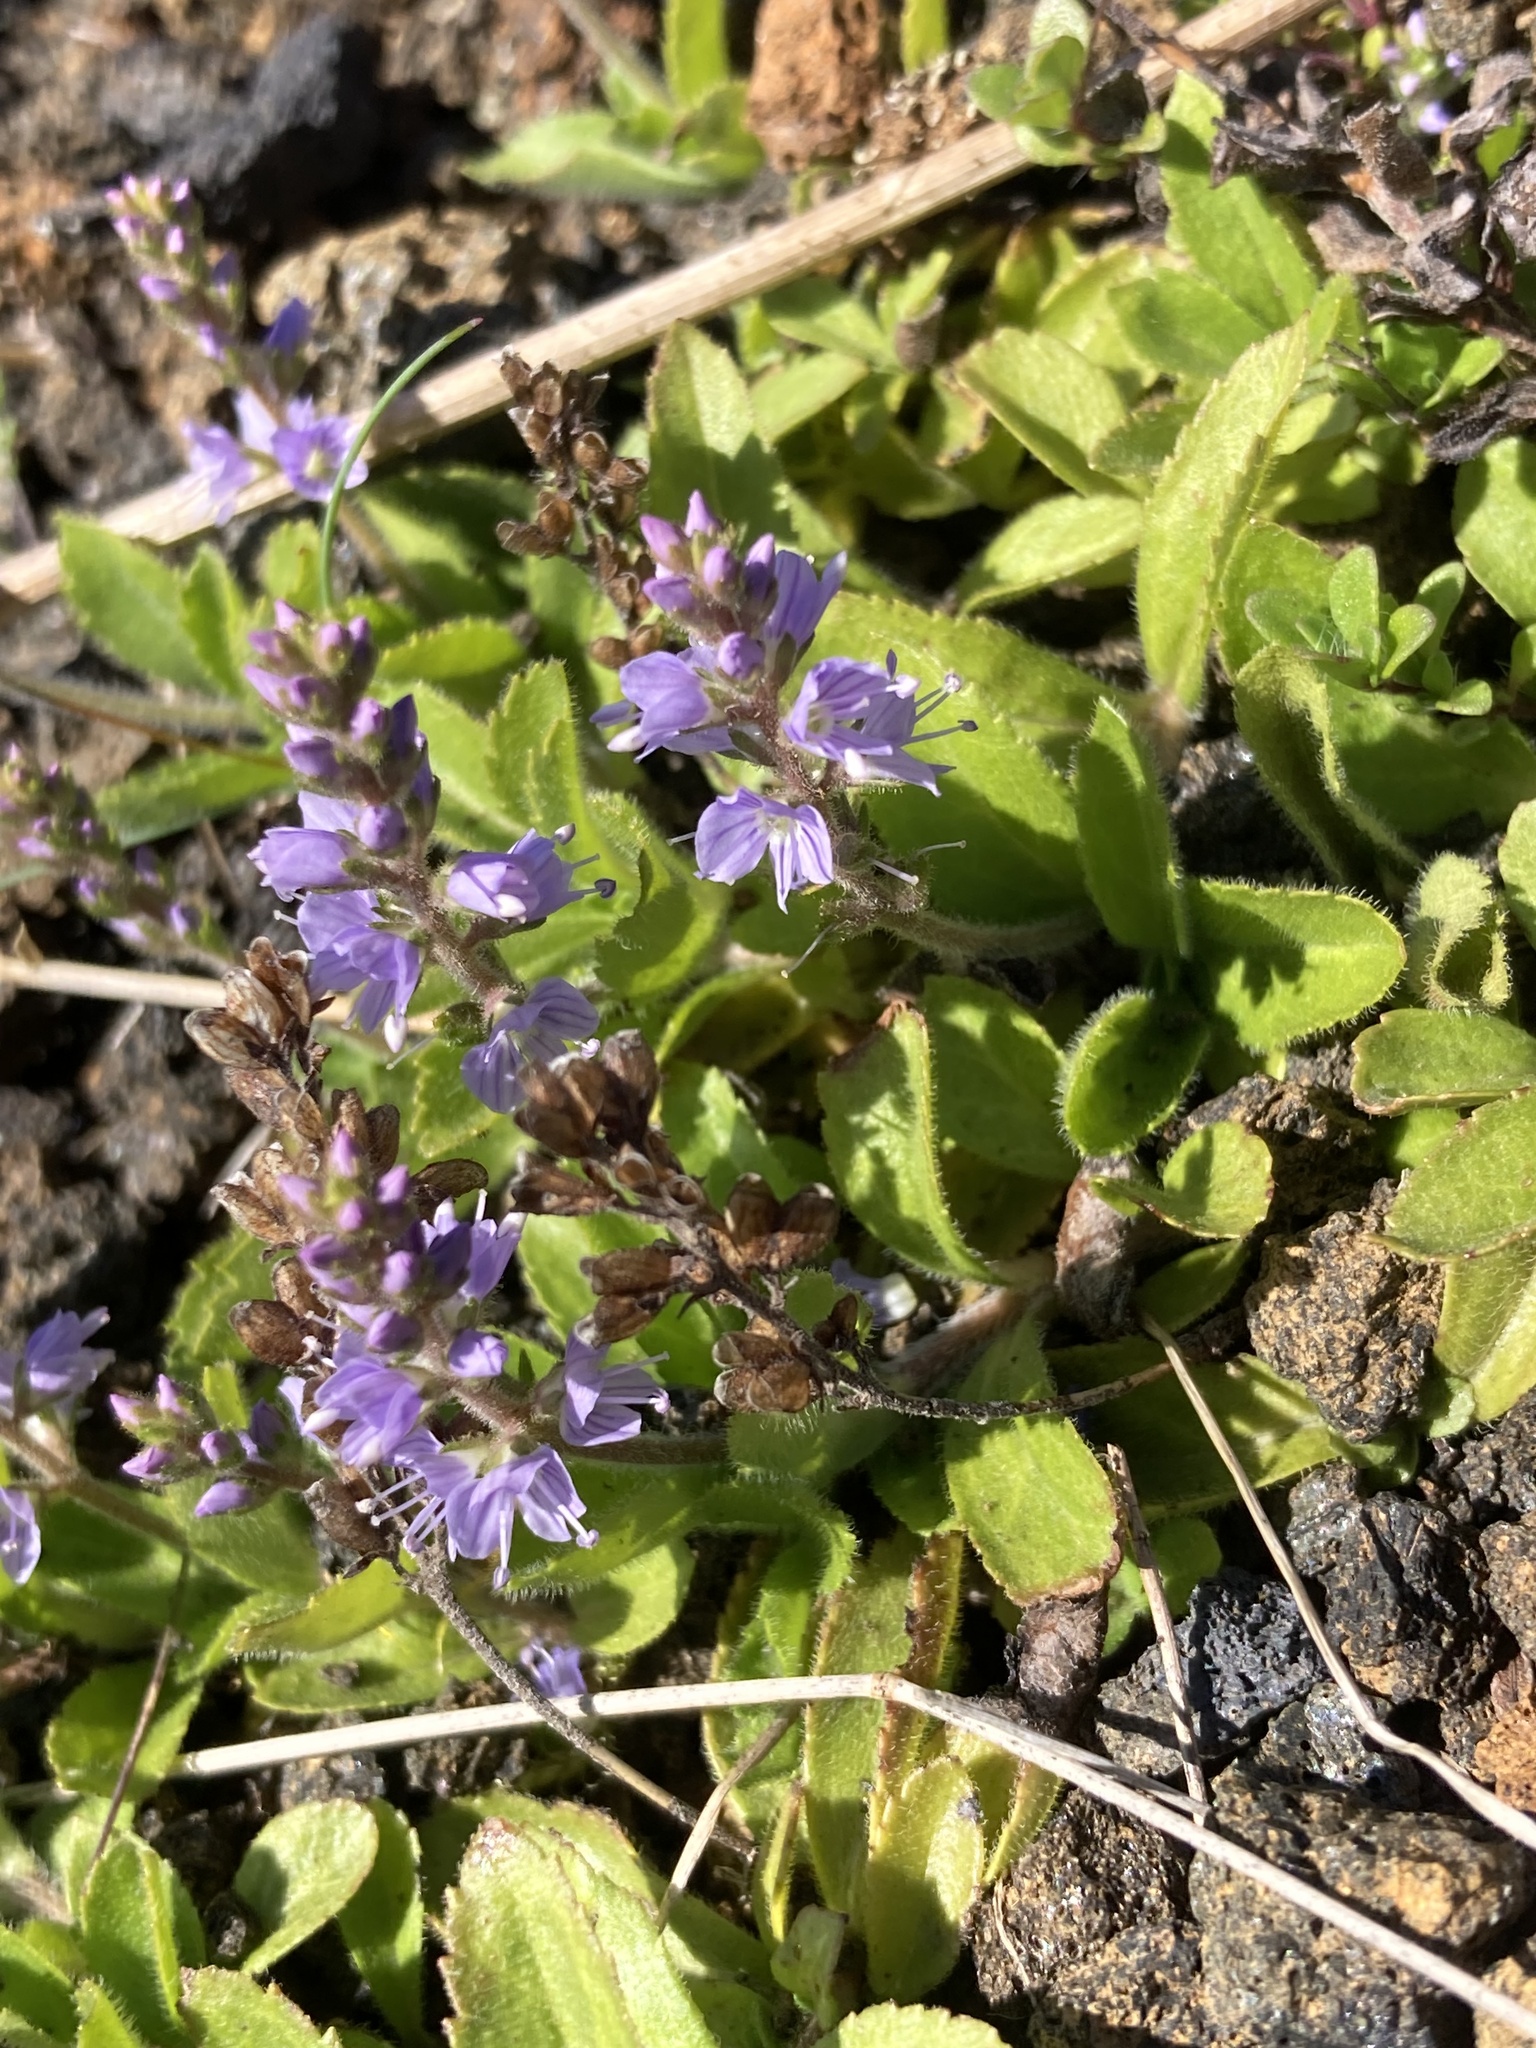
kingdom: Plantae
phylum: Tracheophyta
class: Magnoliopsida
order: Lamiales
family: Plantaginaceae
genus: Veronica
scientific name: Veronica officinalis
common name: Common speedwell
